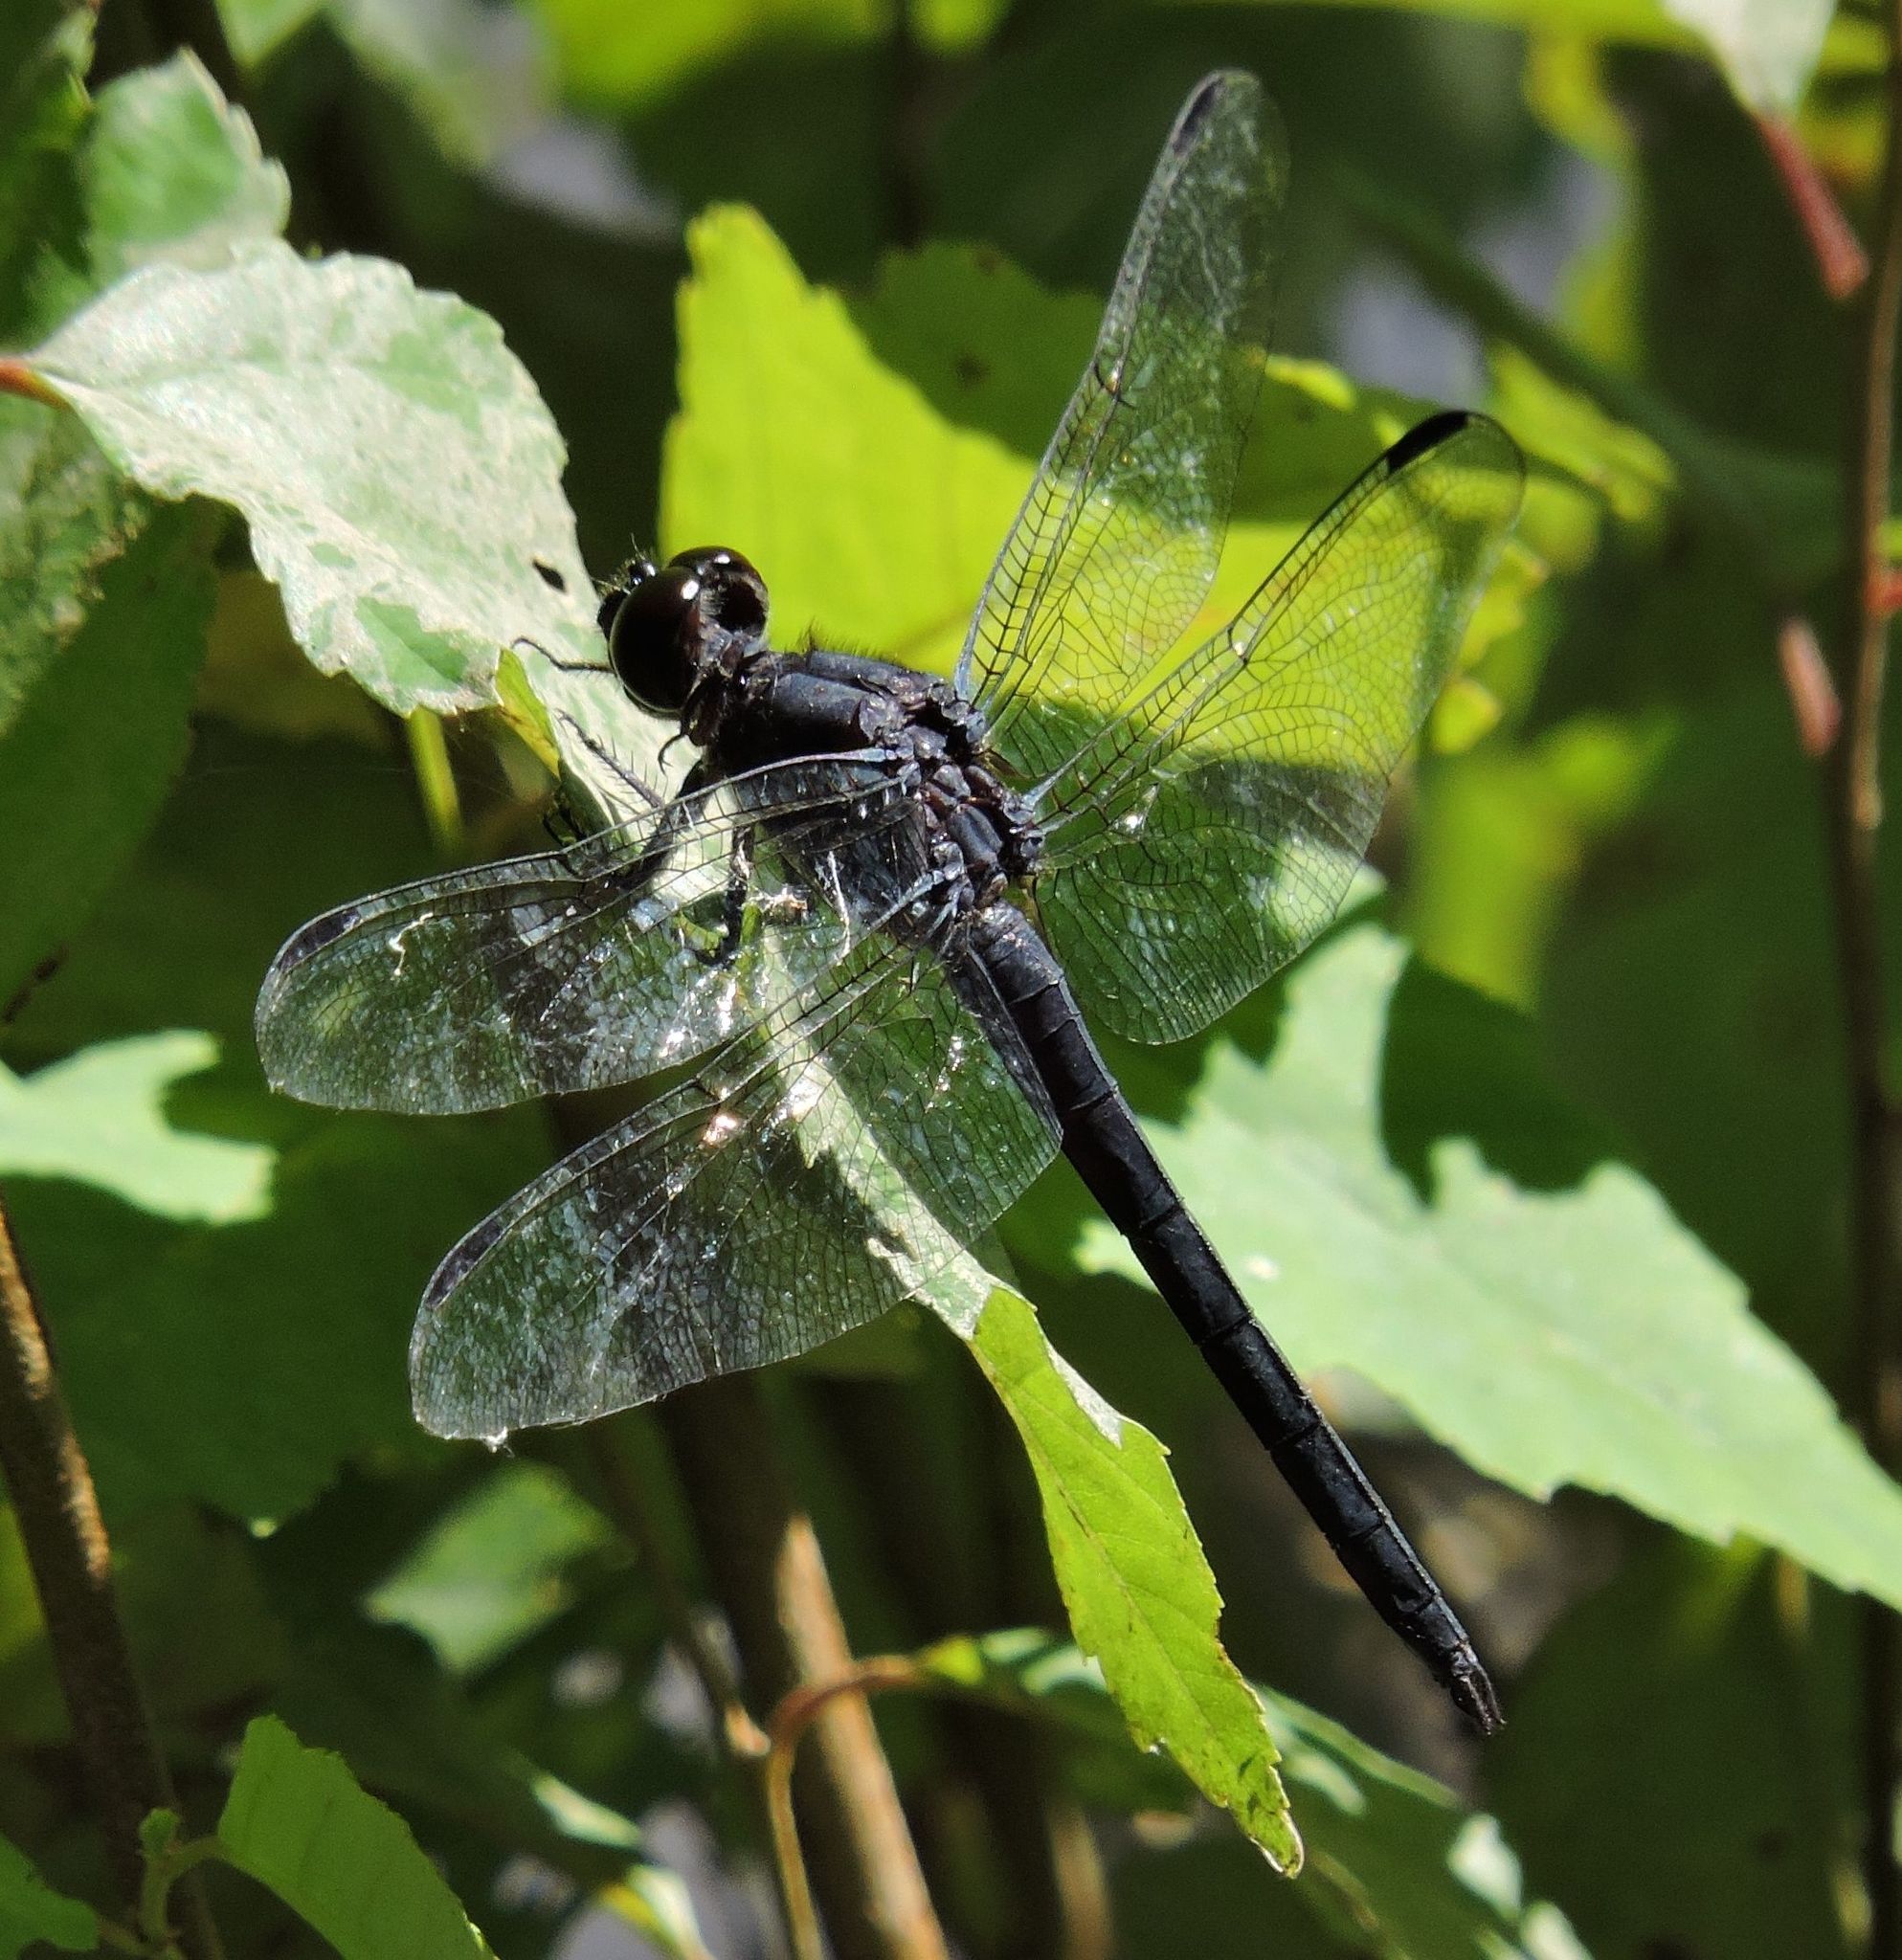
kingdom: Animalia
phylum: Arthropoda
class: Insecta
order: Odonata
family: Libellulidae
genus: Libellula
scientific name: Libellula incesta
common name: Slaty skimmer
